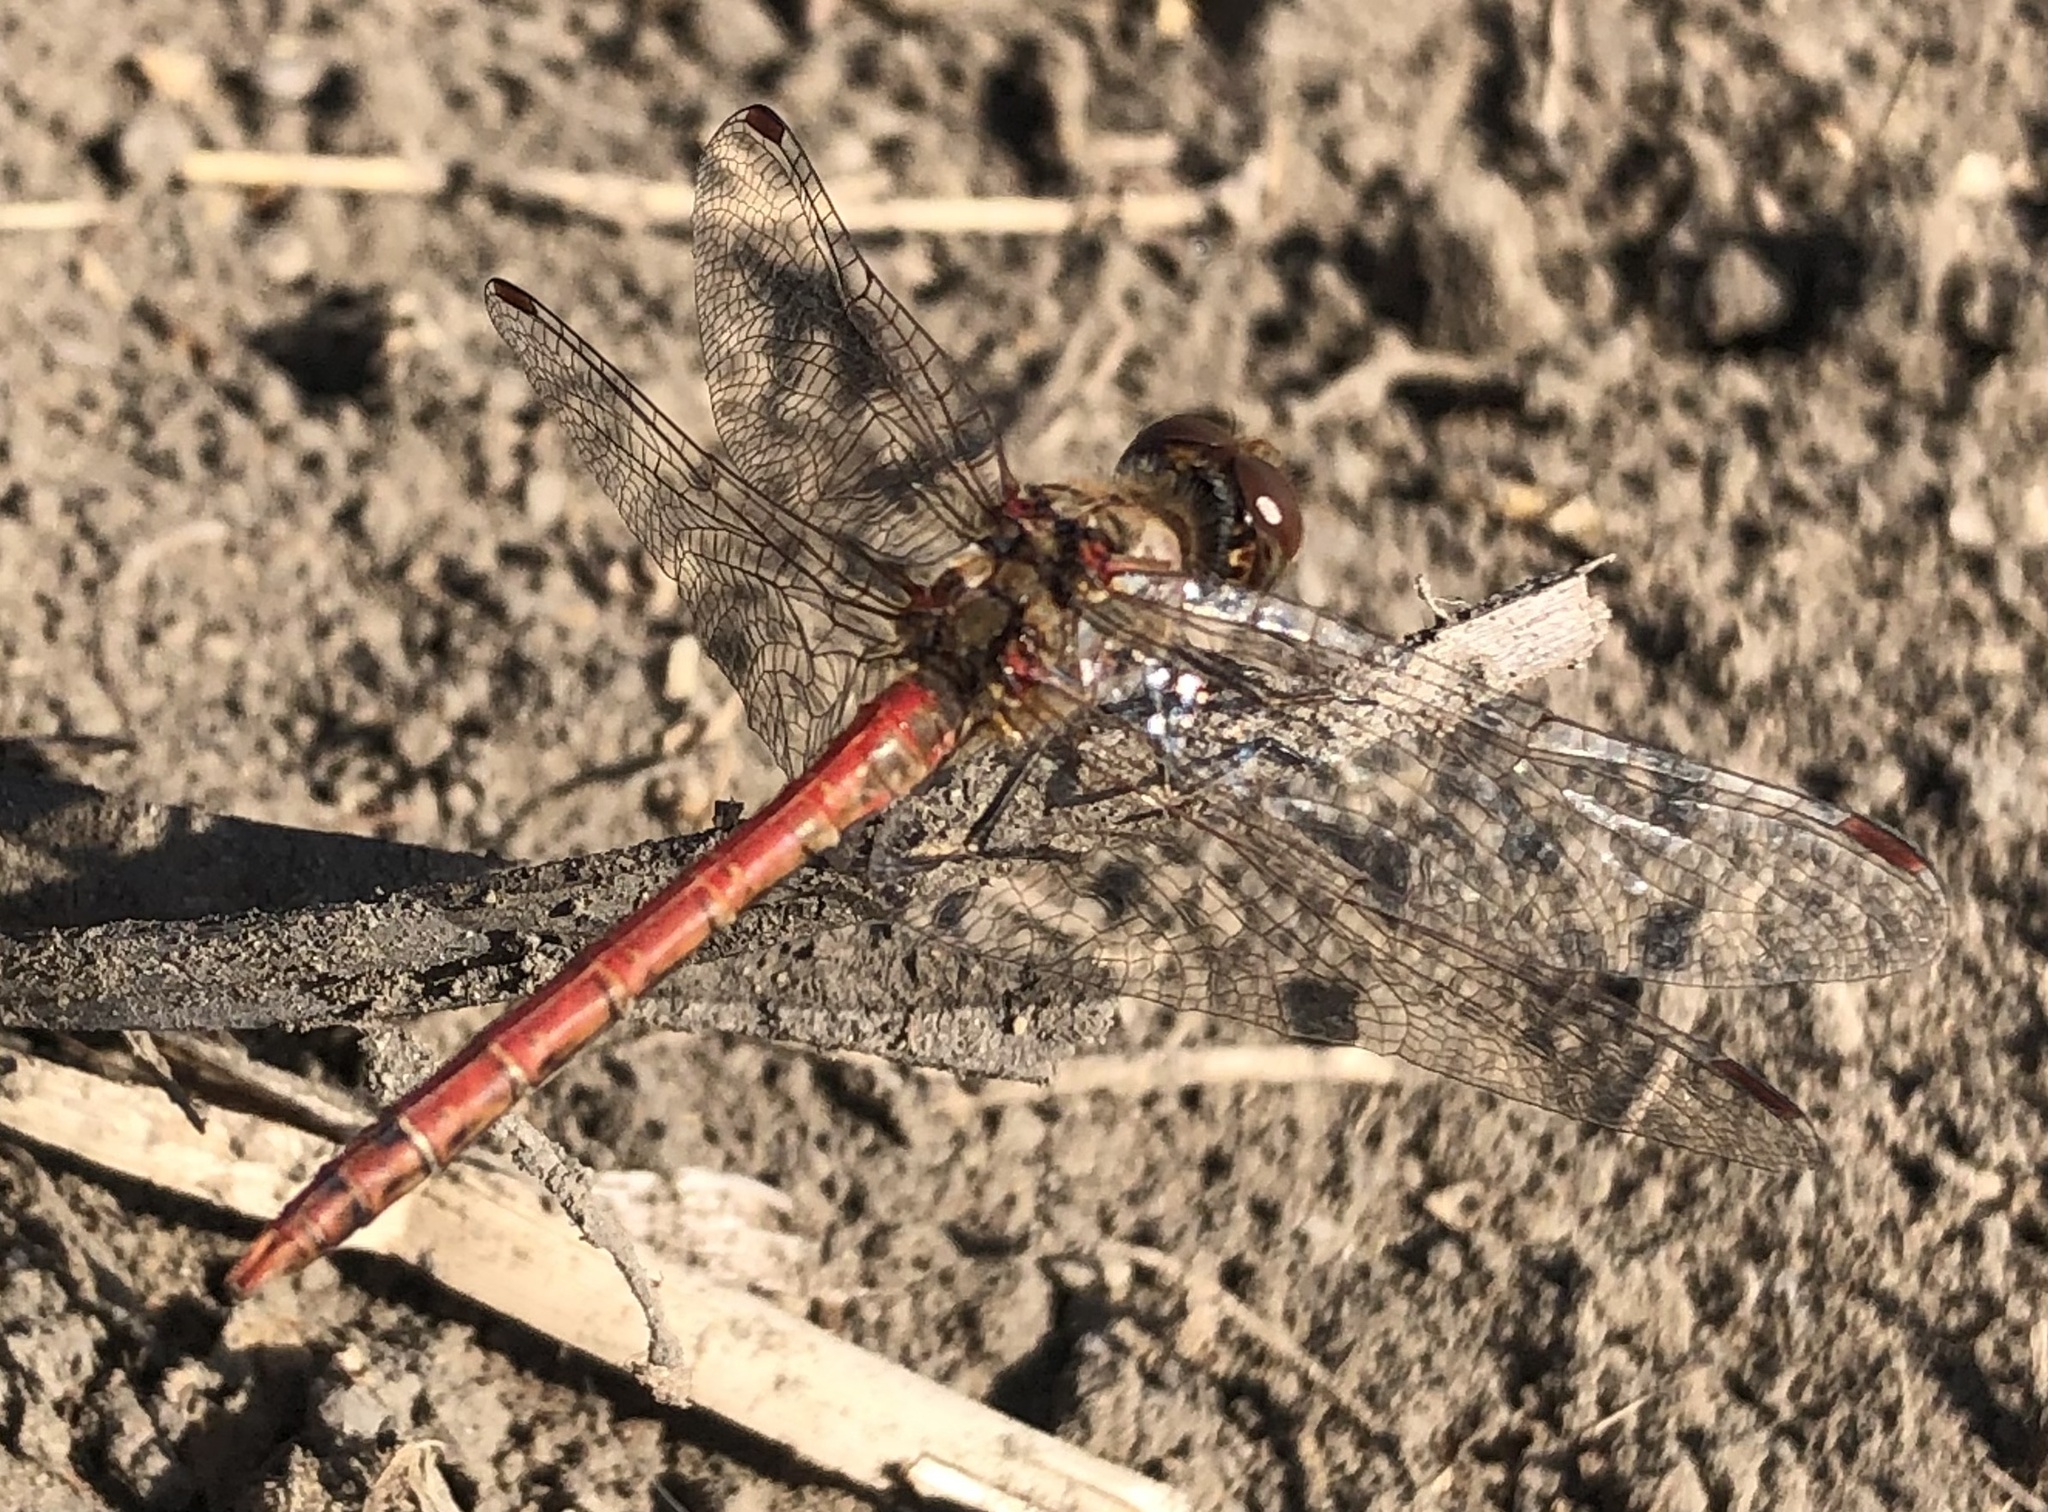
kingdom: Animalia
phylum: Arthropoda
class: Insecta
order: Odonata
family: Libellulidae
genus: Sympetrum
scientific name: Sympetrum striolatum
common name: Common darter
